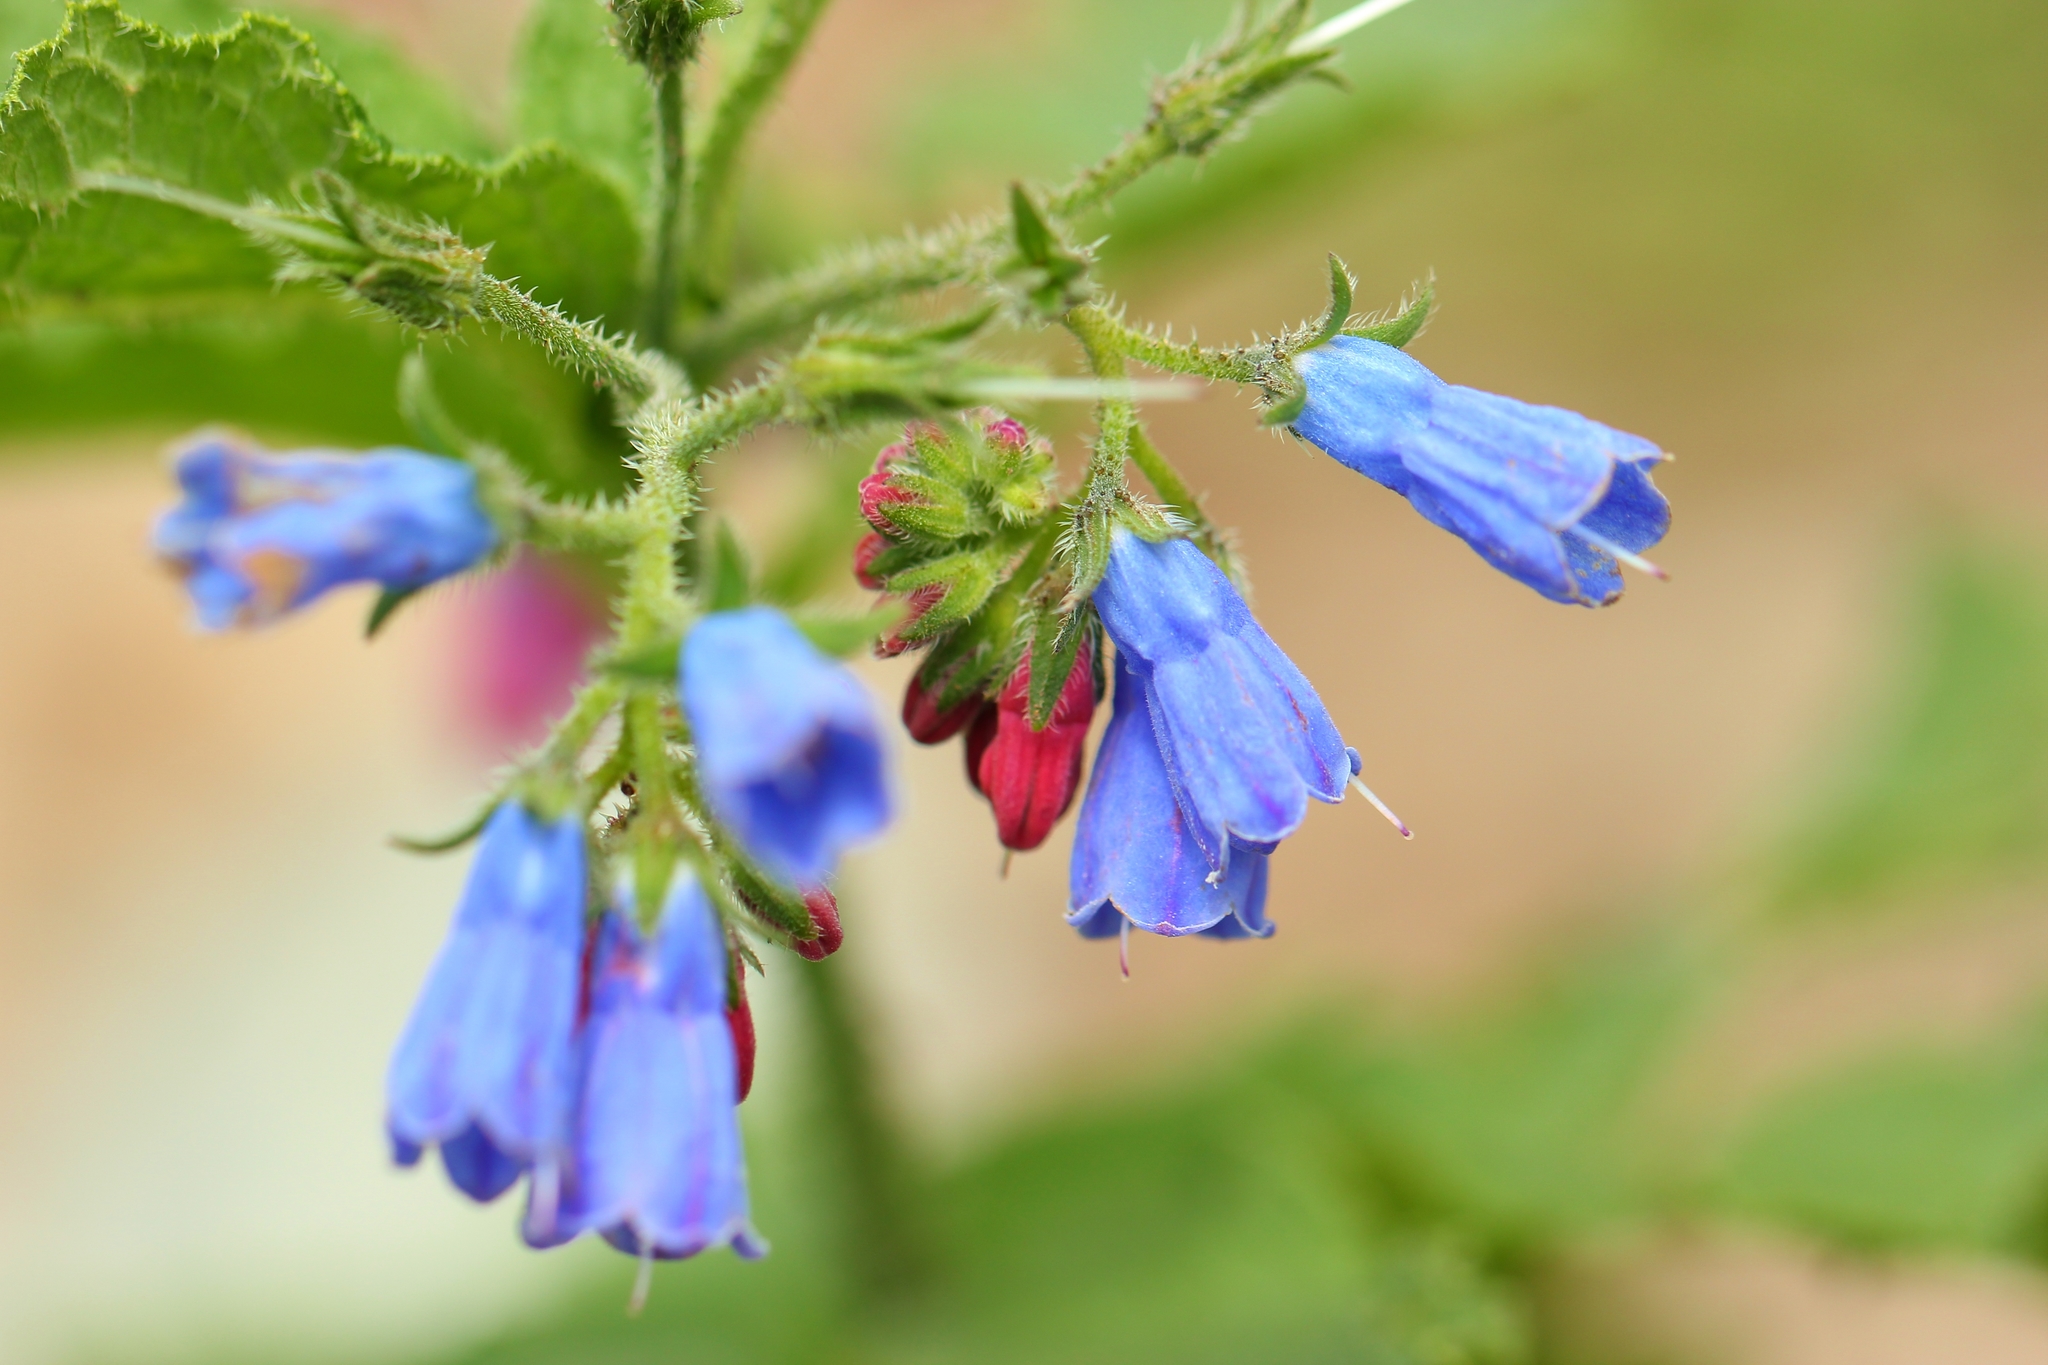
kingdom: Plantae
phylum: Tracheophyta
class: Magnoliopsida
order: Boraginales
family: Boraginaceae
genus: Symphytum
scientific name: Symphytum asperum
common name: Prickly comfrey
